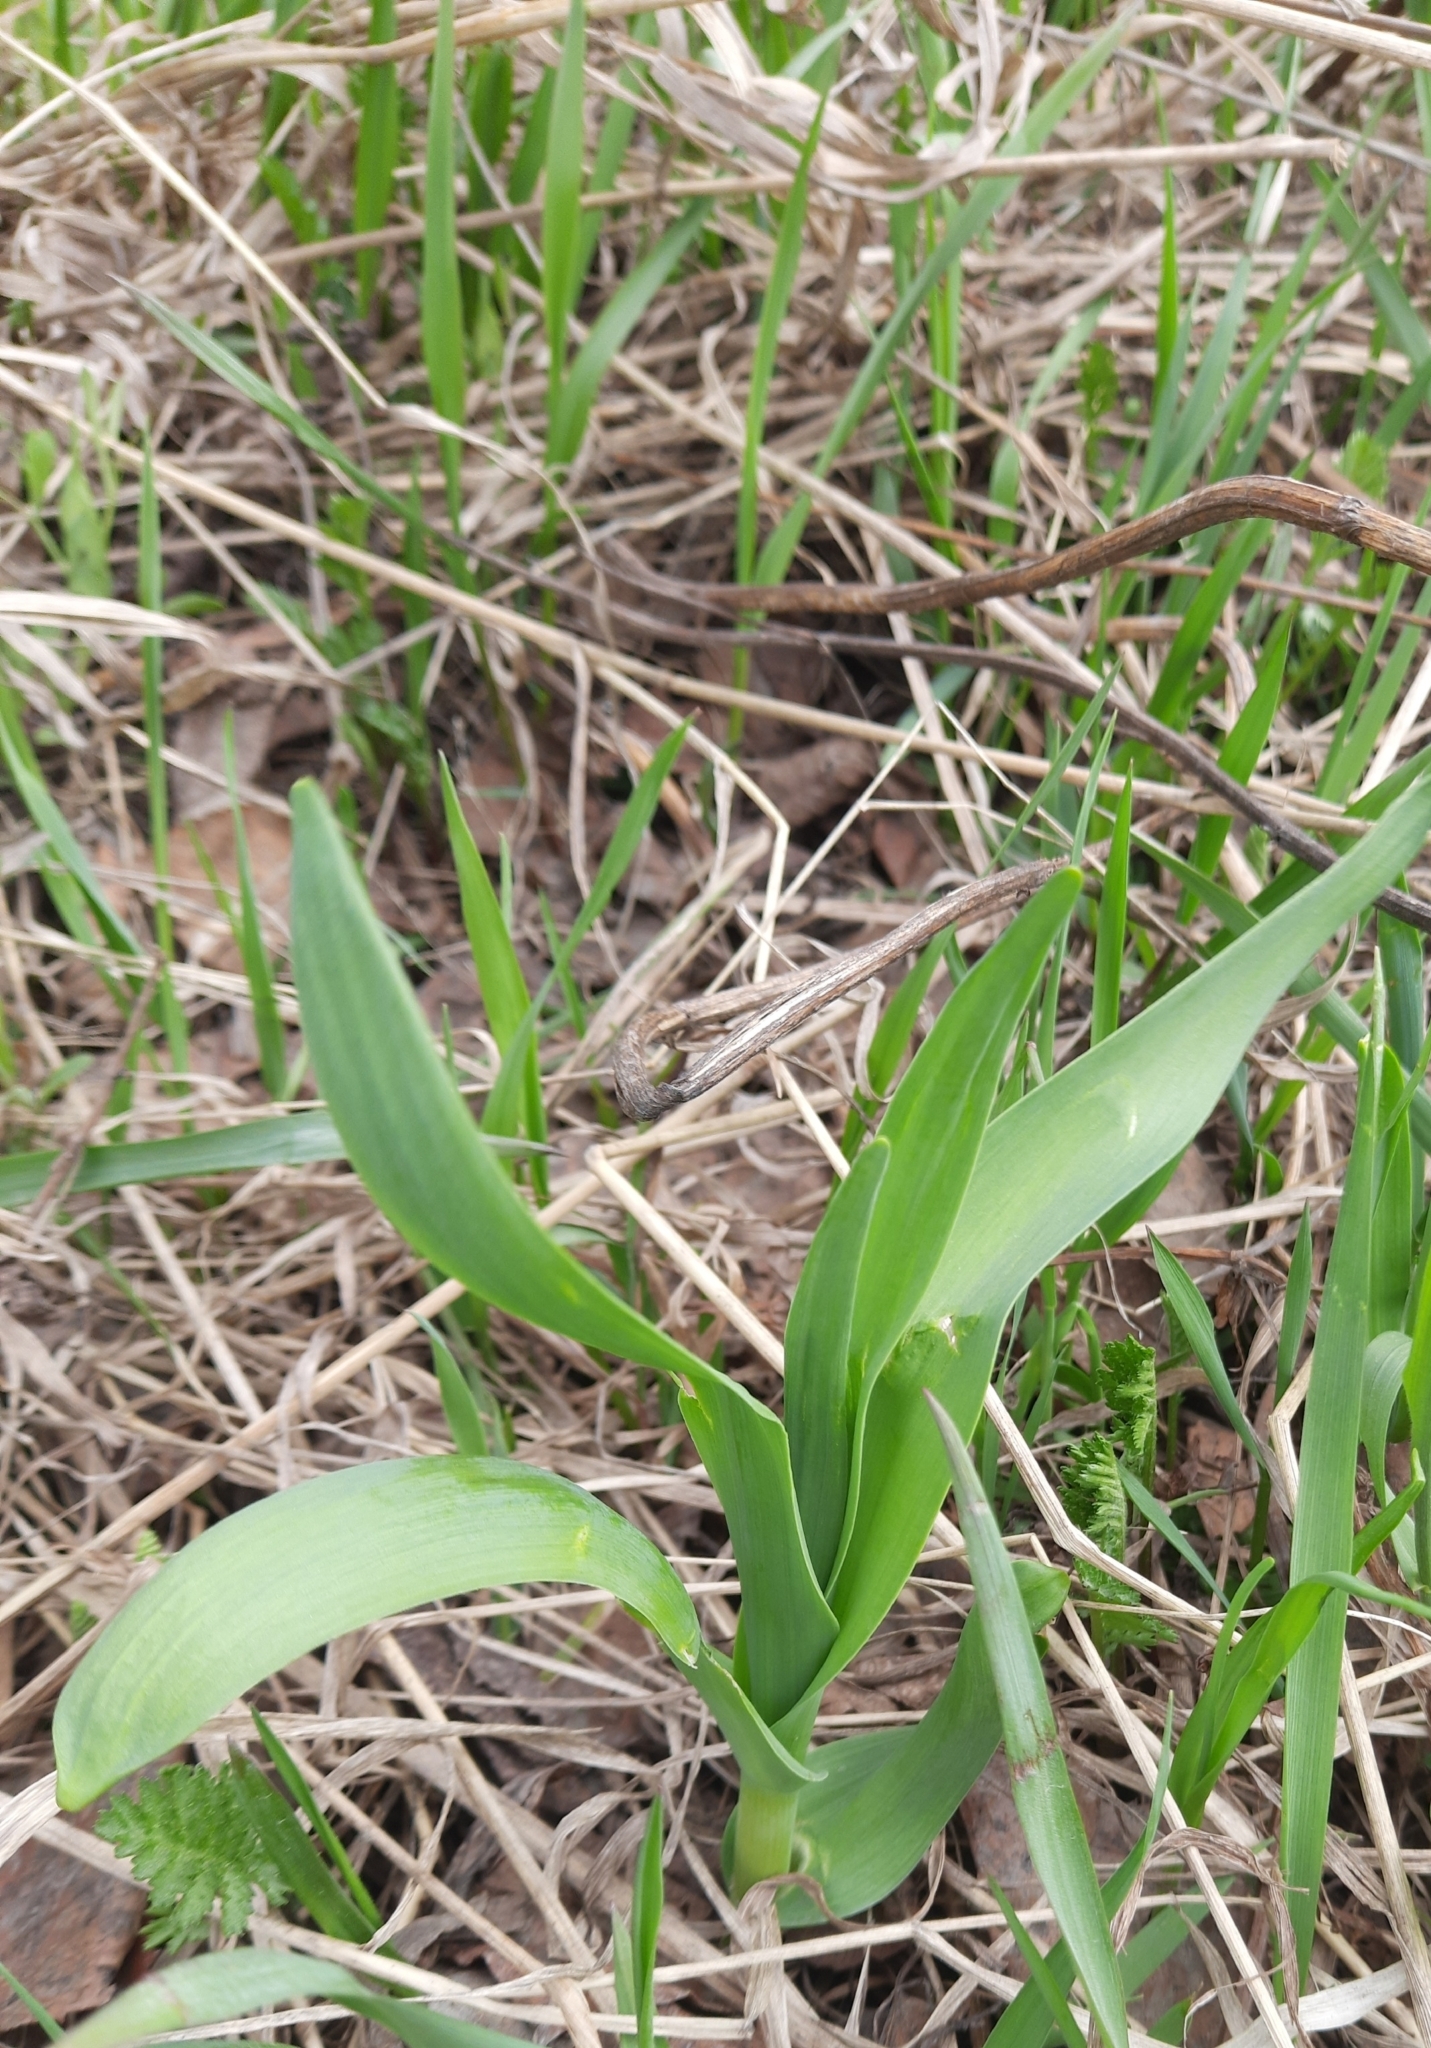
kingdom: Plantae
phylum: Tracheophyta
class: Liliopsida
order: Asparagales
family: Amaryllidaceae
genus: Allium
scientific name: Allium obliquum
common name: Oblique onion
